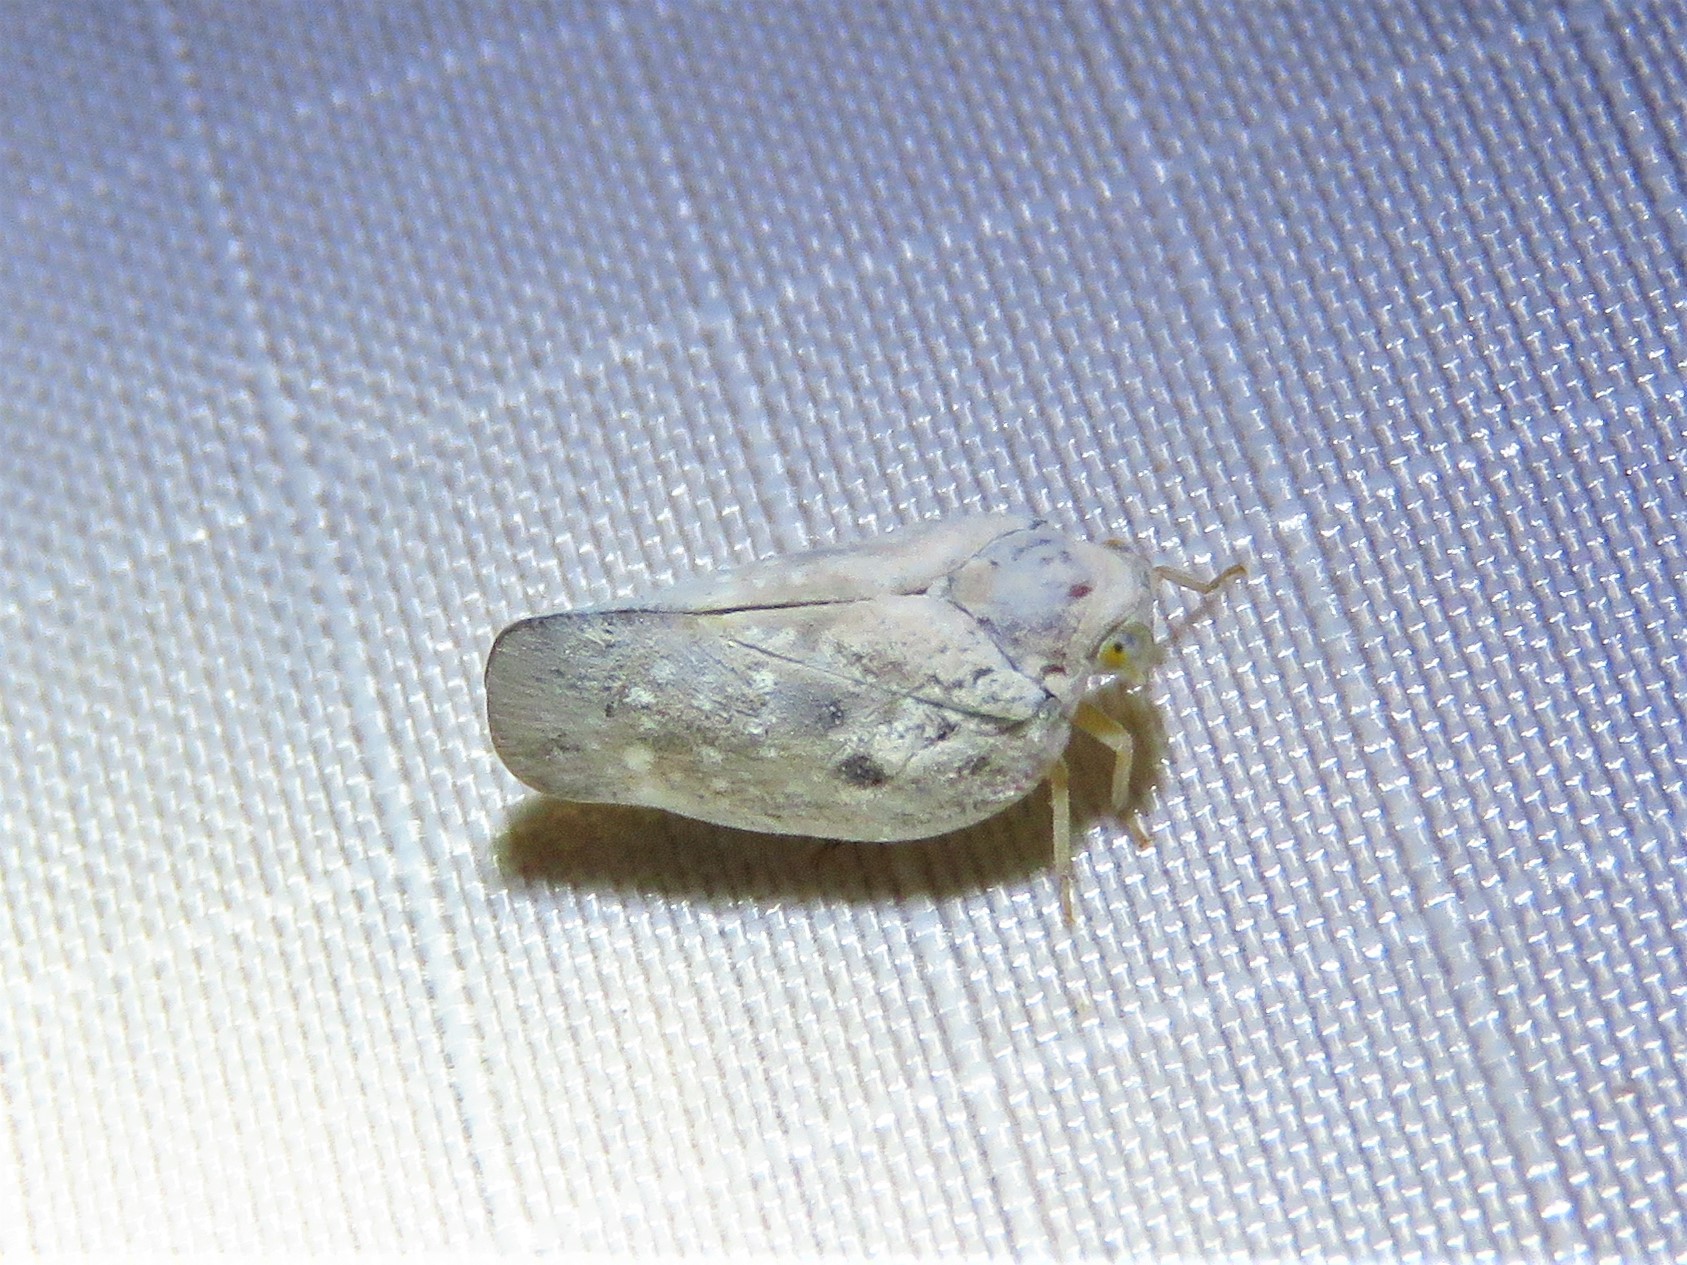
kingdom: Animalia
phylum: Arthropoda
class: Insecta
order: Hemiptera
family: Flatidae
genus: Metcalfa
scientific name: Metcalfa pruinosa
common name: Citrus flatid planthopper
